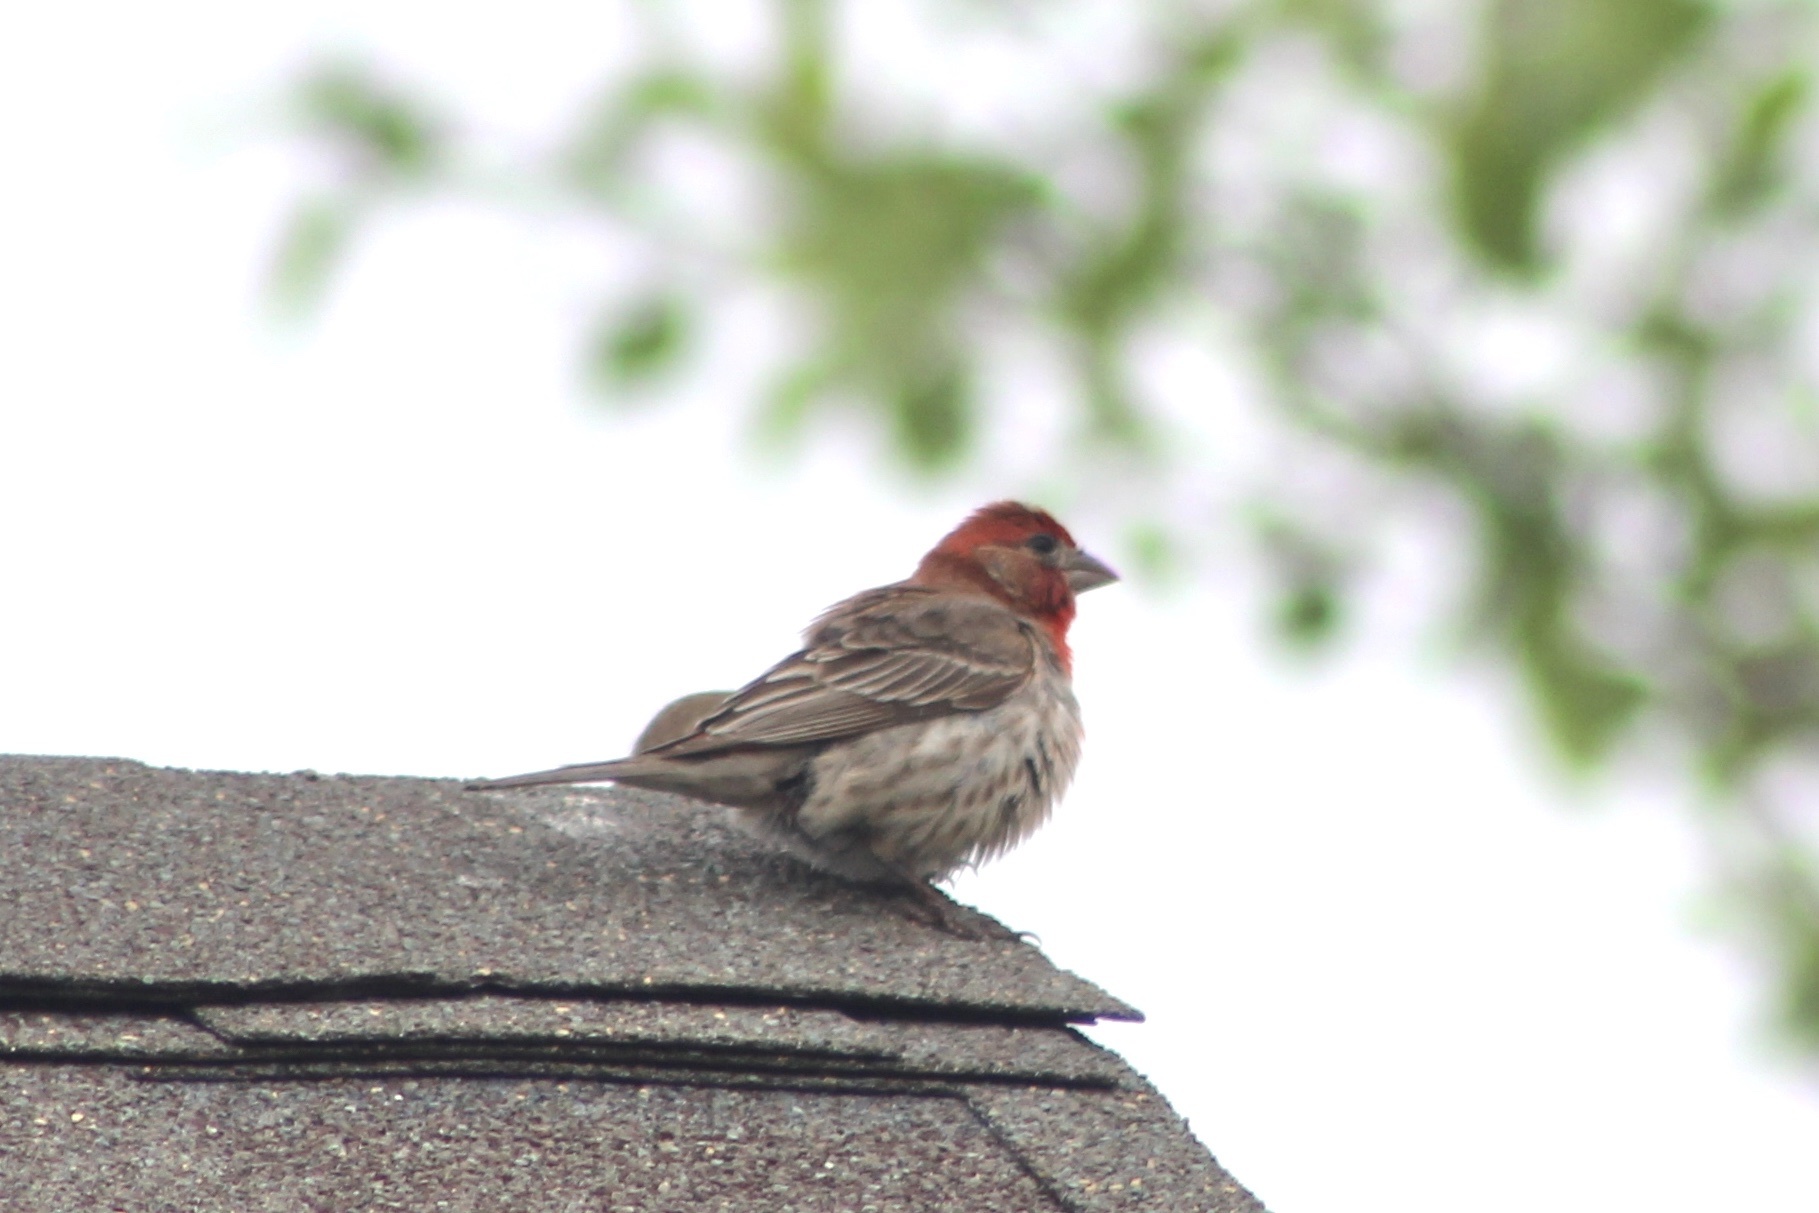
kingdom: Animalia
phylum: Chordata
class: Aves
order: Passeriformes
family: Fringillidae
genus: Haemorhous
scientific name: Haemorhous mexicanus
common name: House finch
